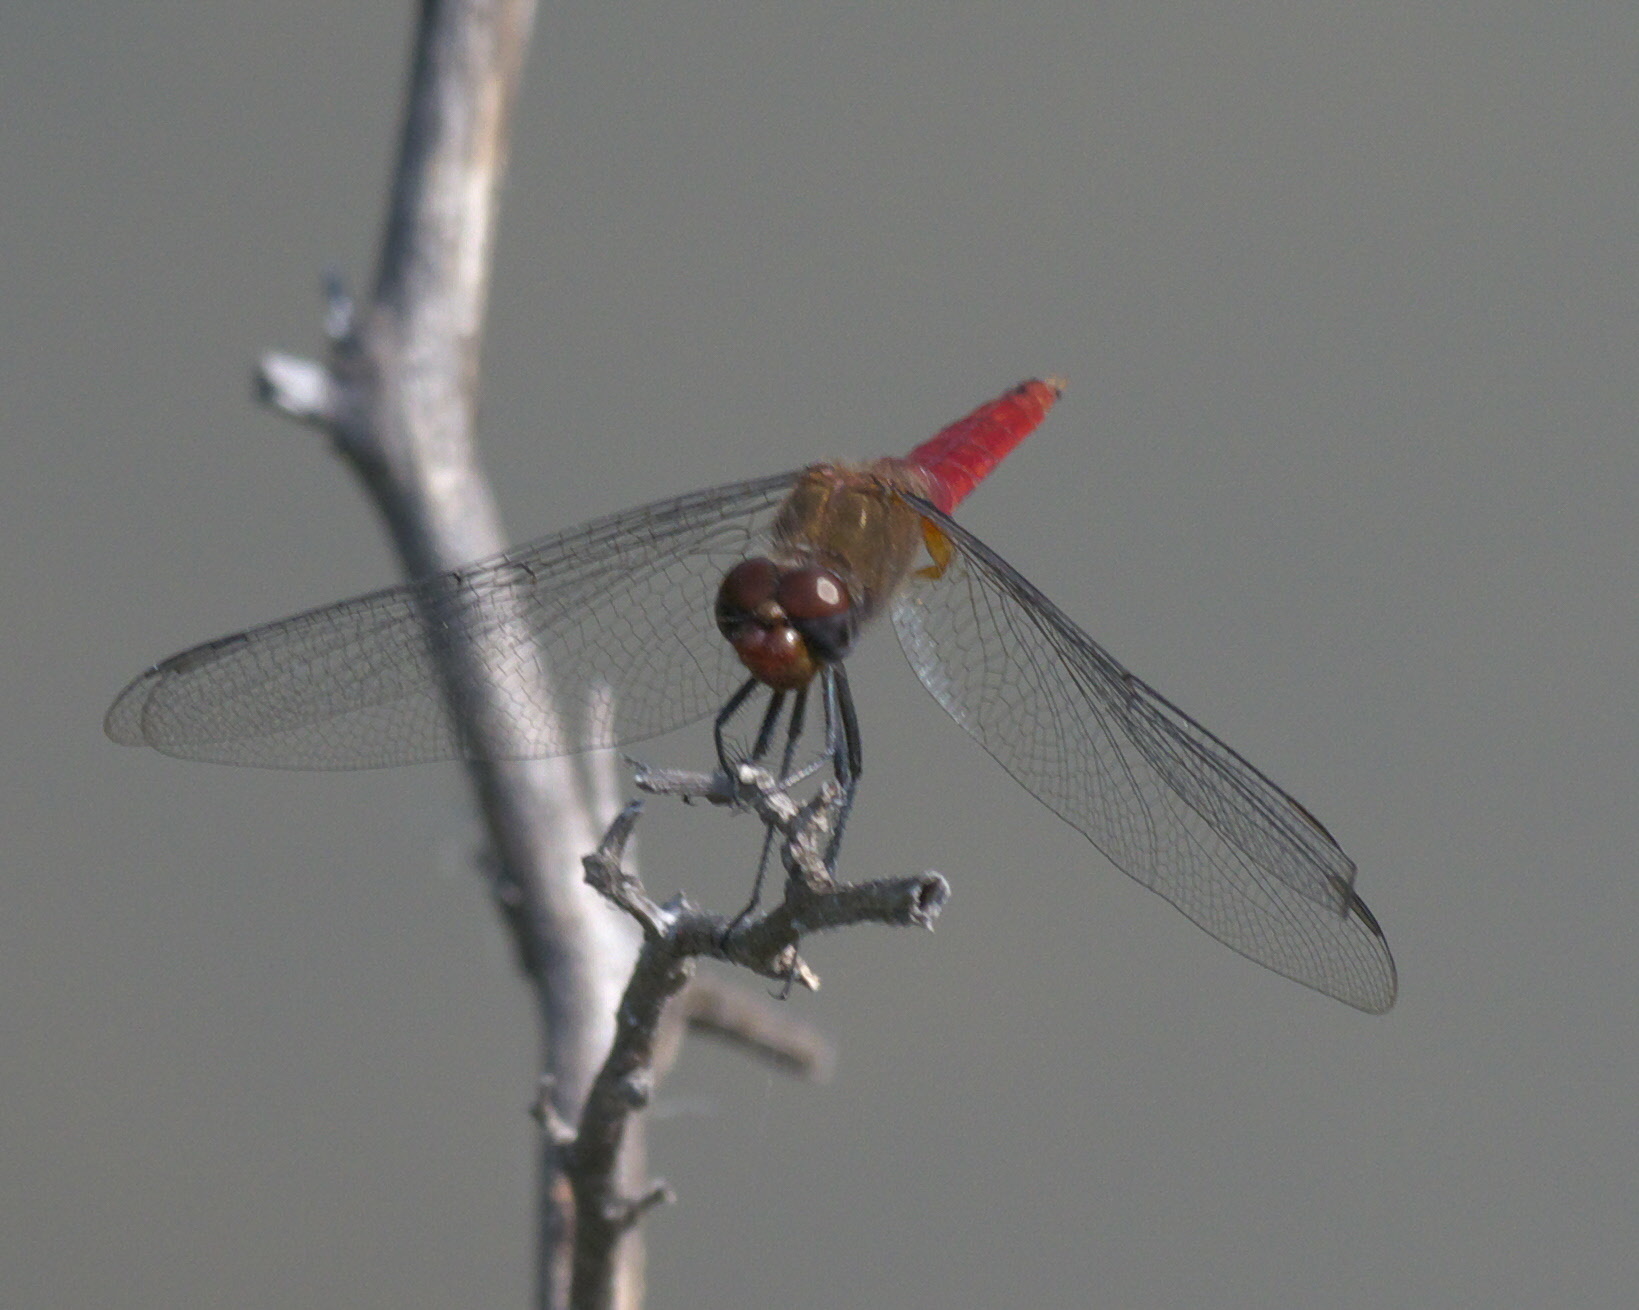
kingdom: Animalia
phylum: Arthropoda
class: Insecta
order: Odonata
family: Libellulidae
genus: Brachymesia
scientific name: Brachymesia furcata
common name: Red-taled pennant
